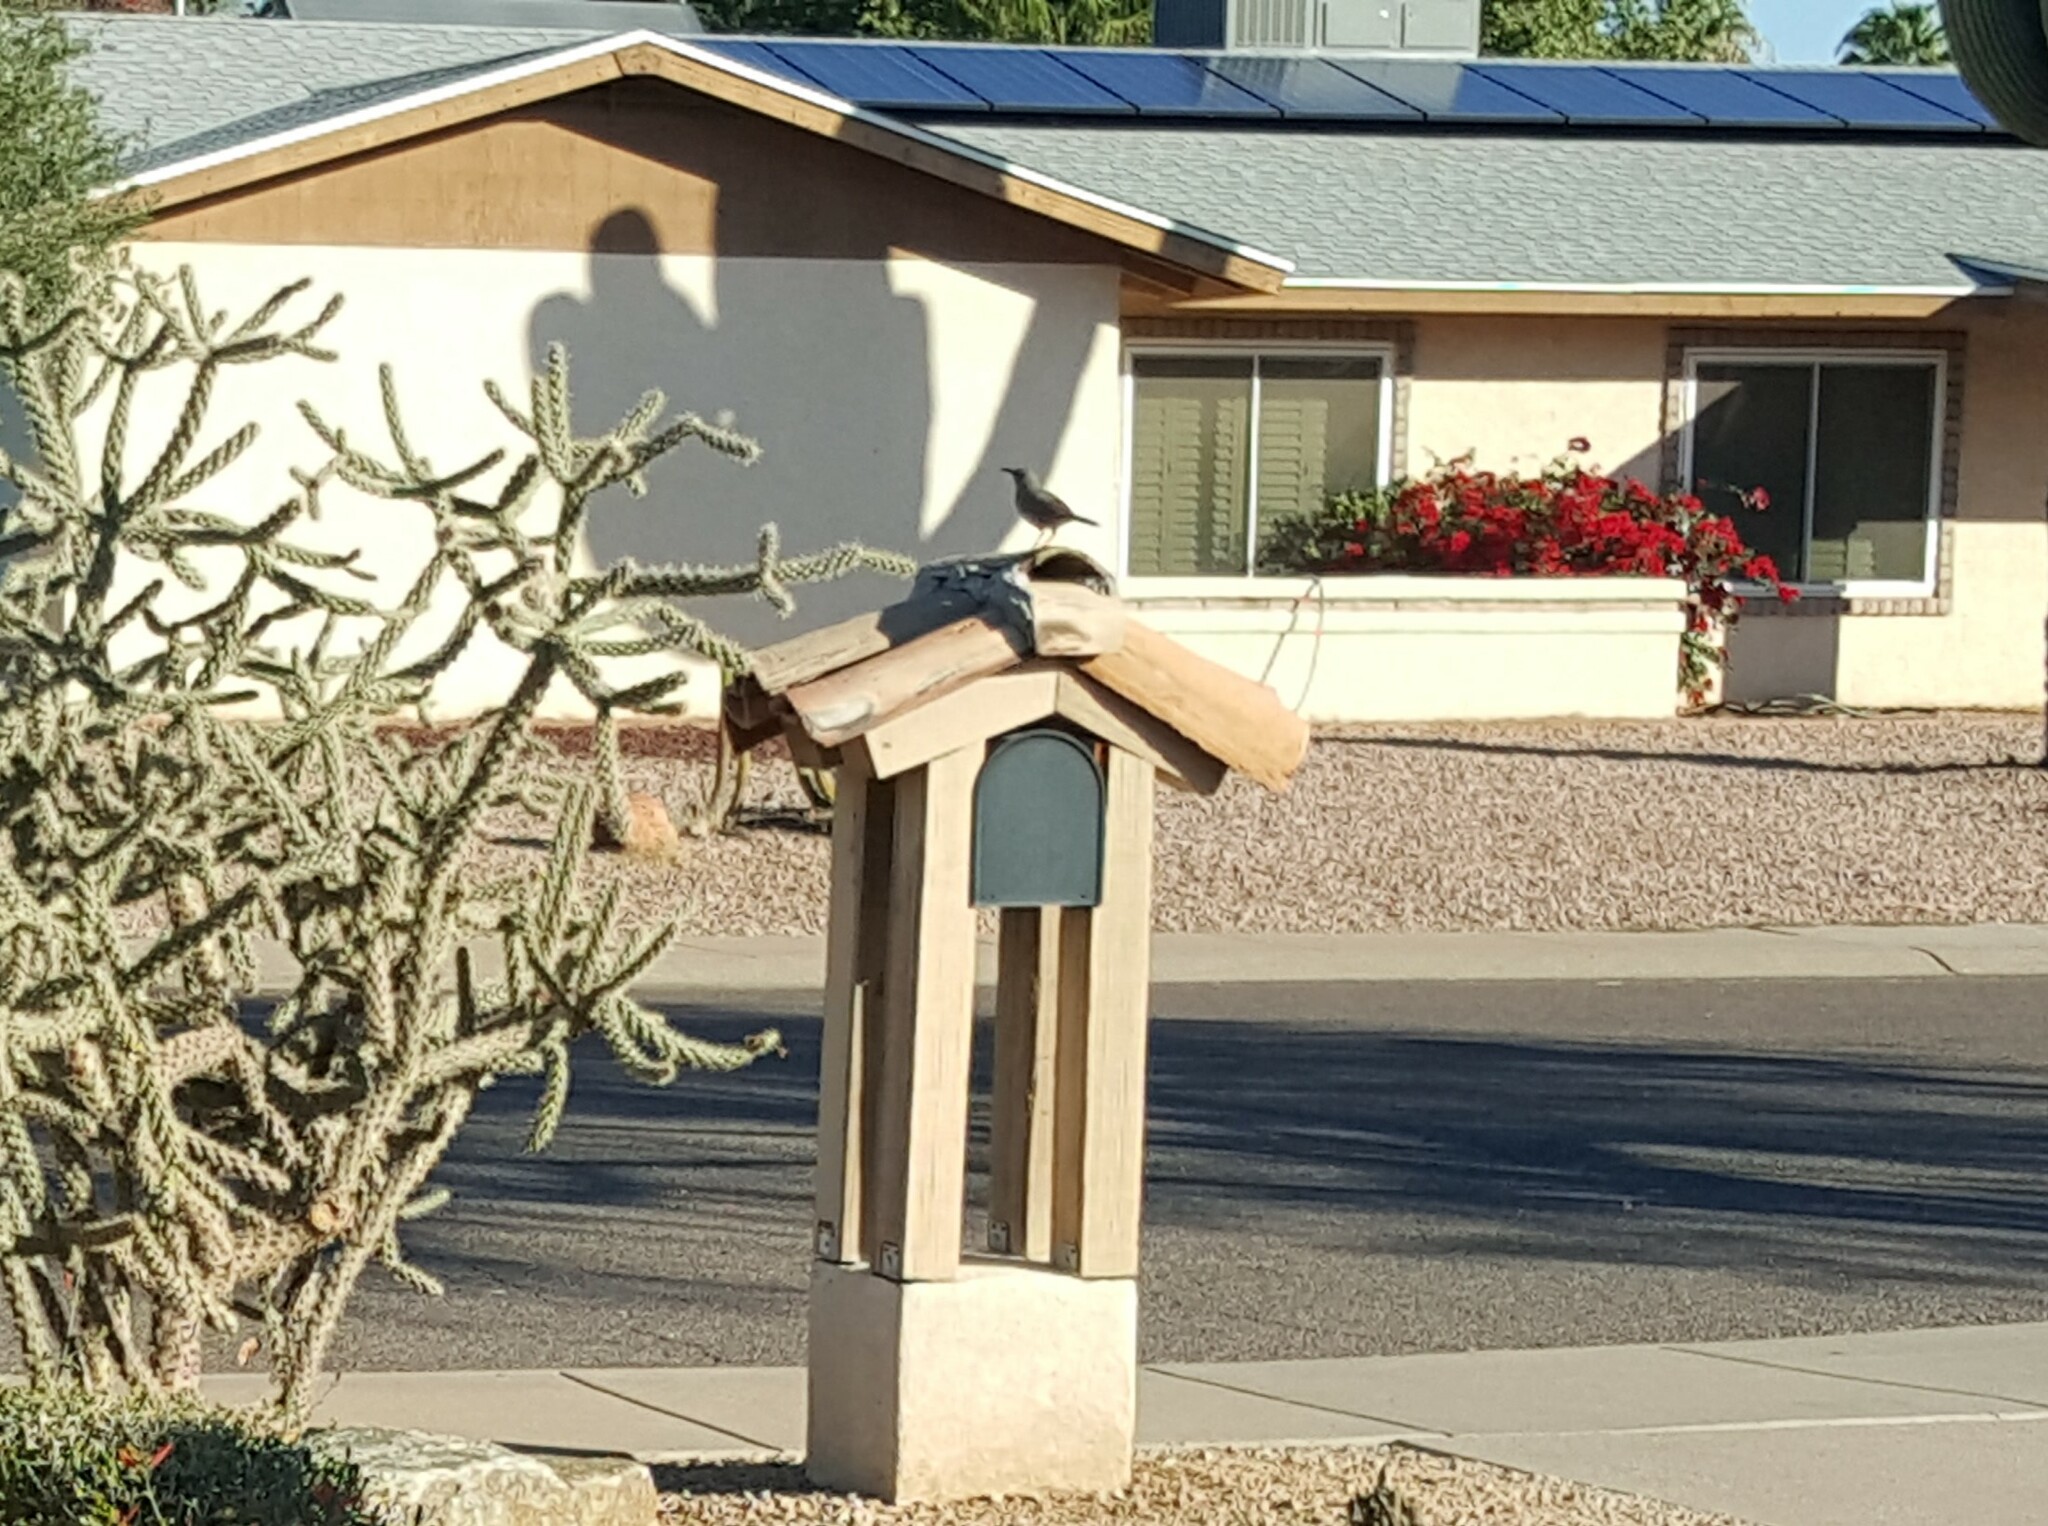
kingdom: Animalia
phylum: Chordata
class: Aves
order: Passeriformes
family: Mimidae
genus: Toxostoma
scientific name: Toxostoma curvirostre
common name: Curve-billed thrasher
